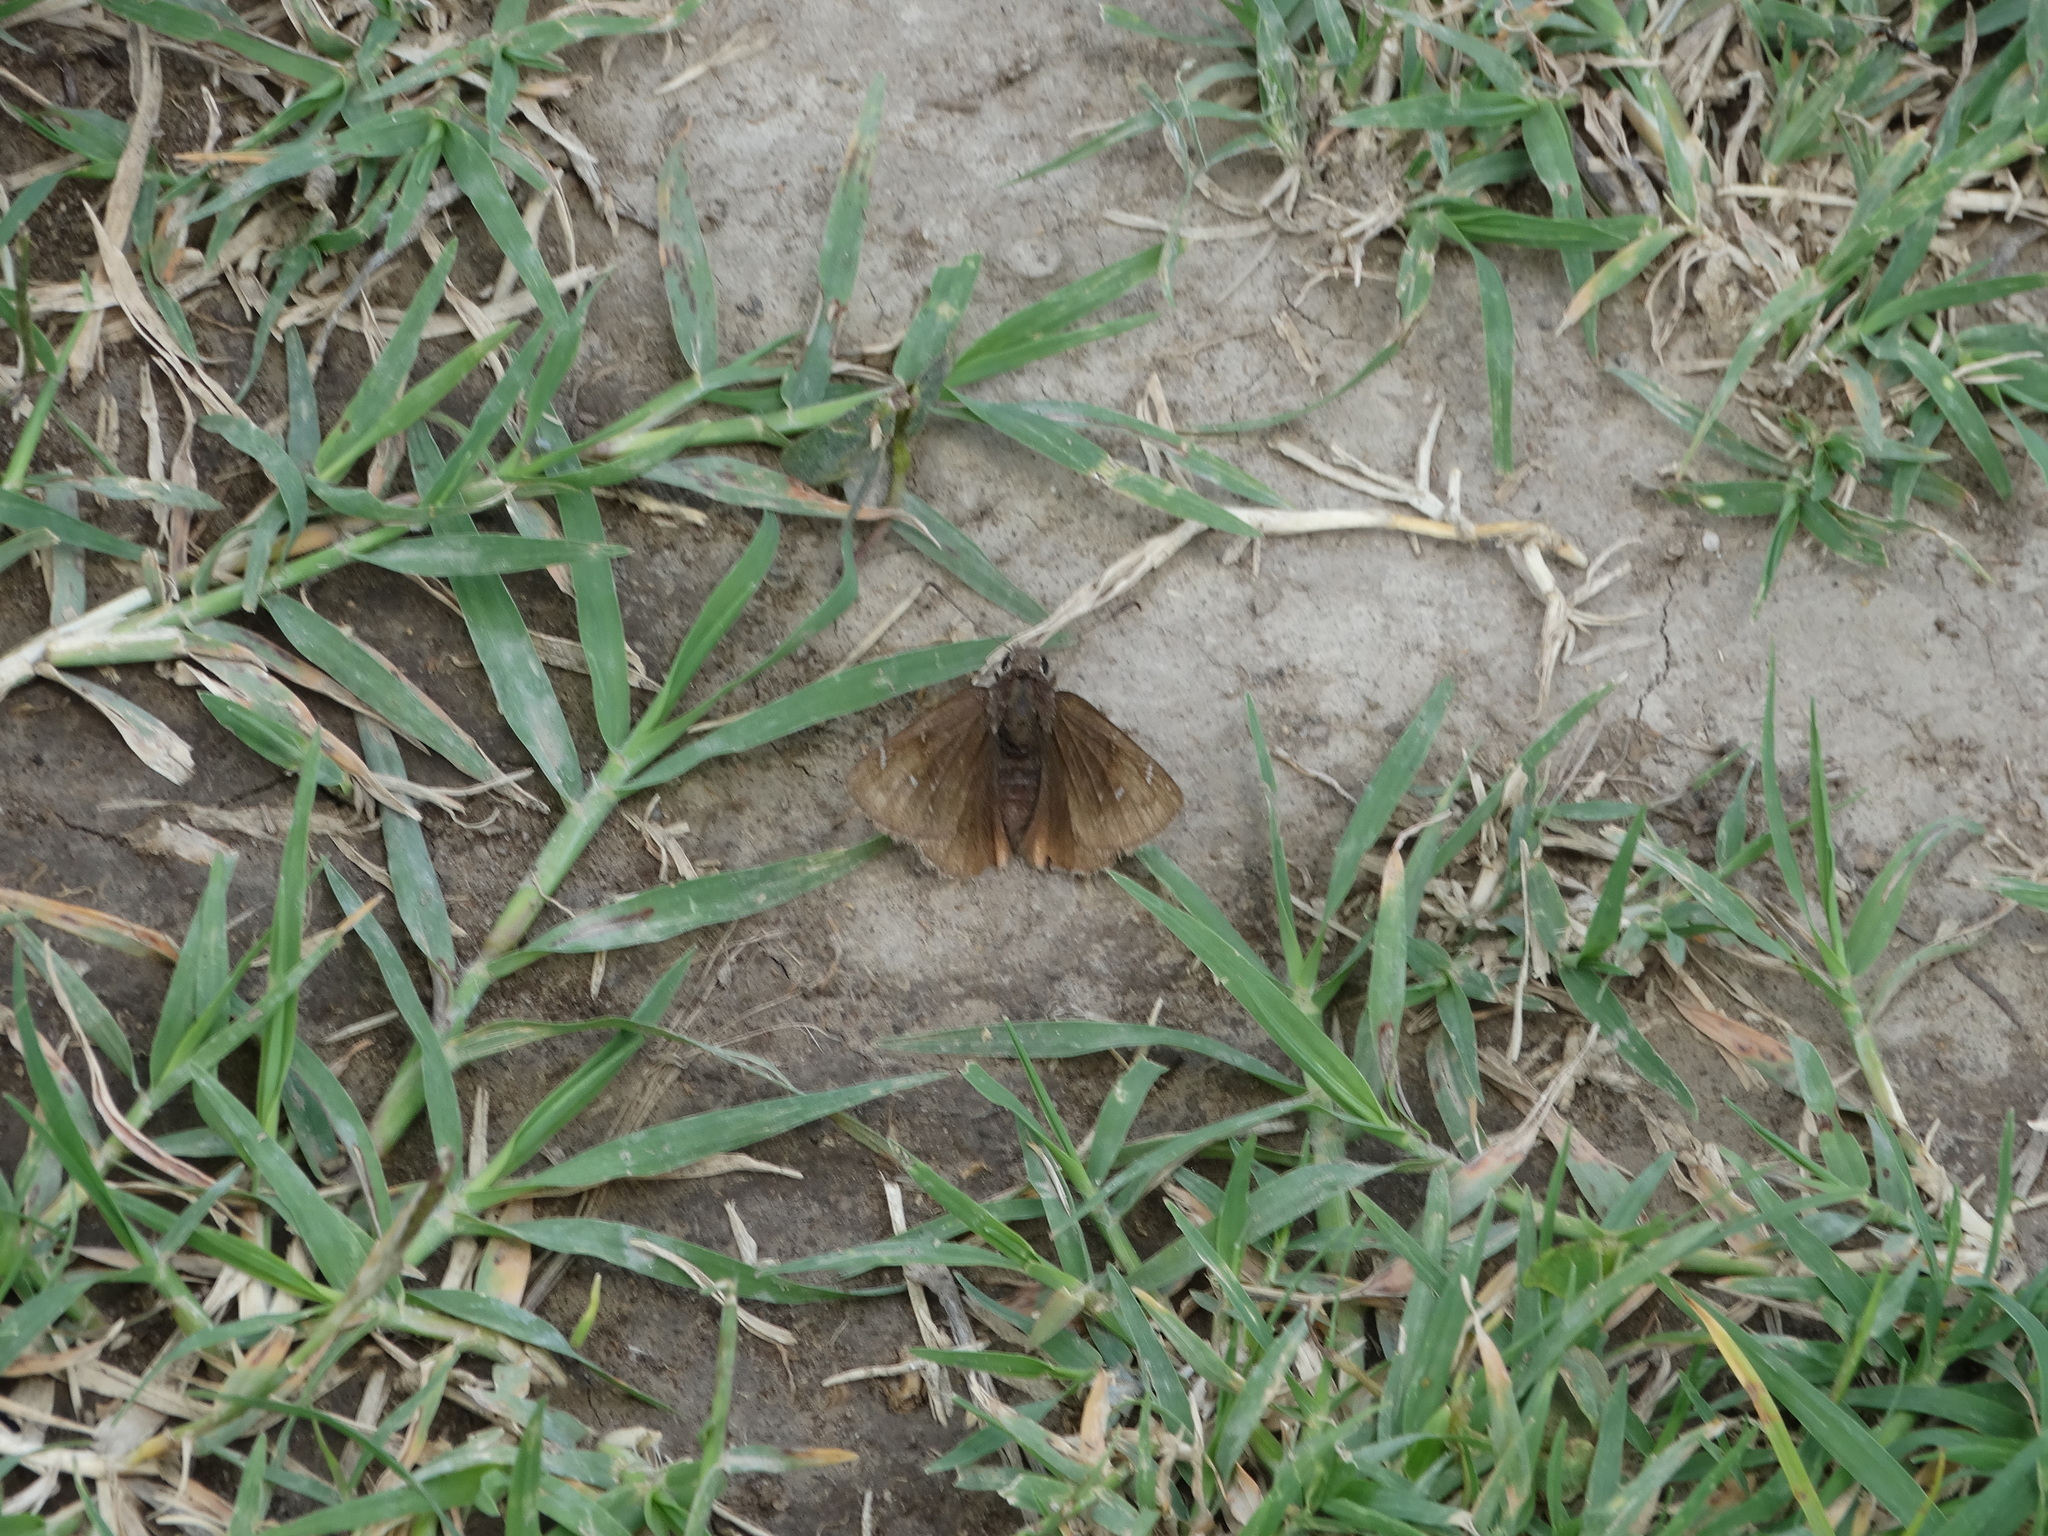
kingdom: Animalia
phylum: Arthropoda
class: Insecta
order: Lepidoptera
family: Hesperiidae
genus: Thorybes
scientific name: Thorybes mexicana
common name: Mexican cloudywing
